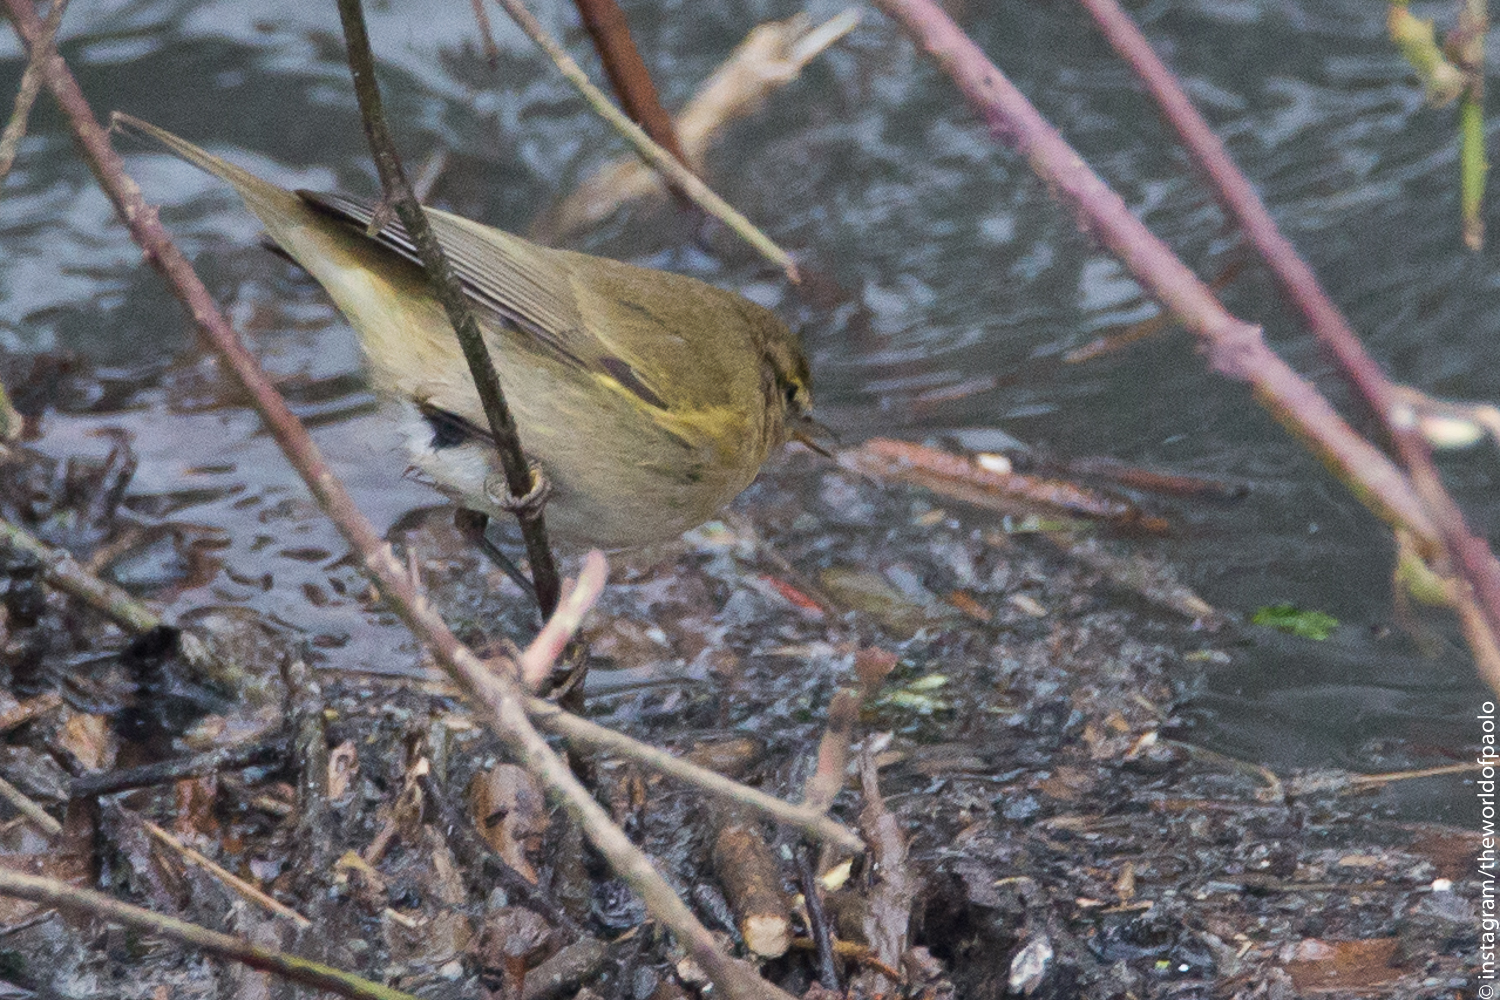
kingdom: Animalia
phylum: Chordata
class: Aves
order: Passeriformes
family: Phylloscopidae
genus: Phylloscopus
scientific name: Phylloscopus collybita
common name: Common chiffchaff
